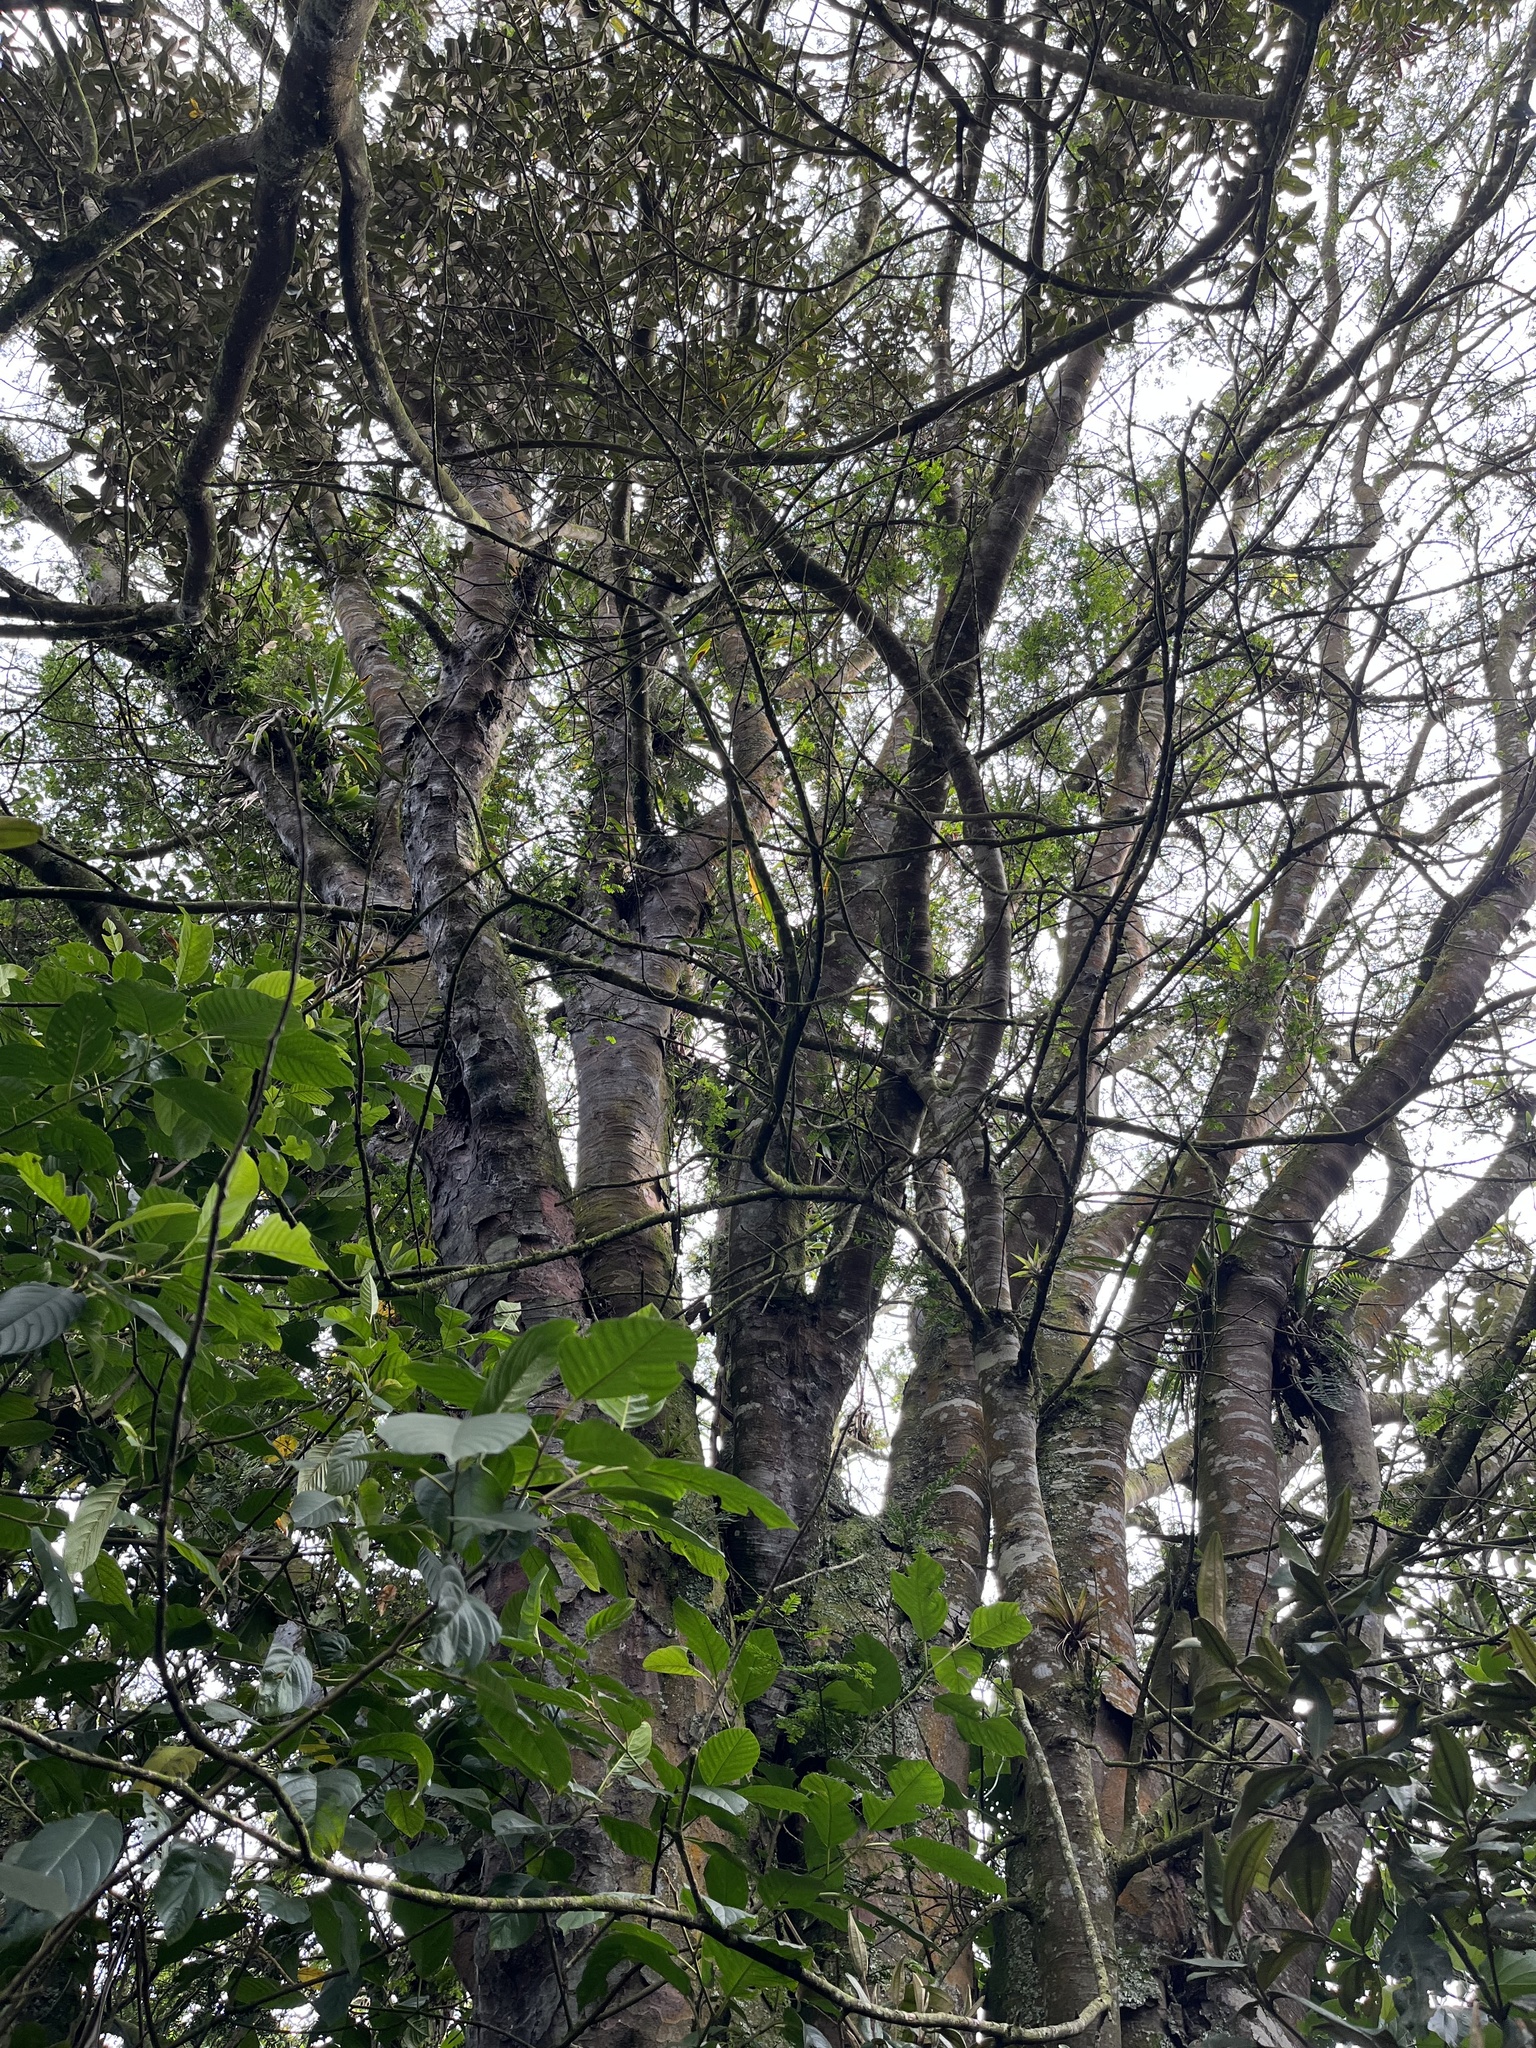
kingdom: Plantae
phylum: Tracheophyta
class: Pinopsida
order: Pinales
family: Podocarpaceae
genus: Prumnopitys
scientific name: Prumnopitys montana
